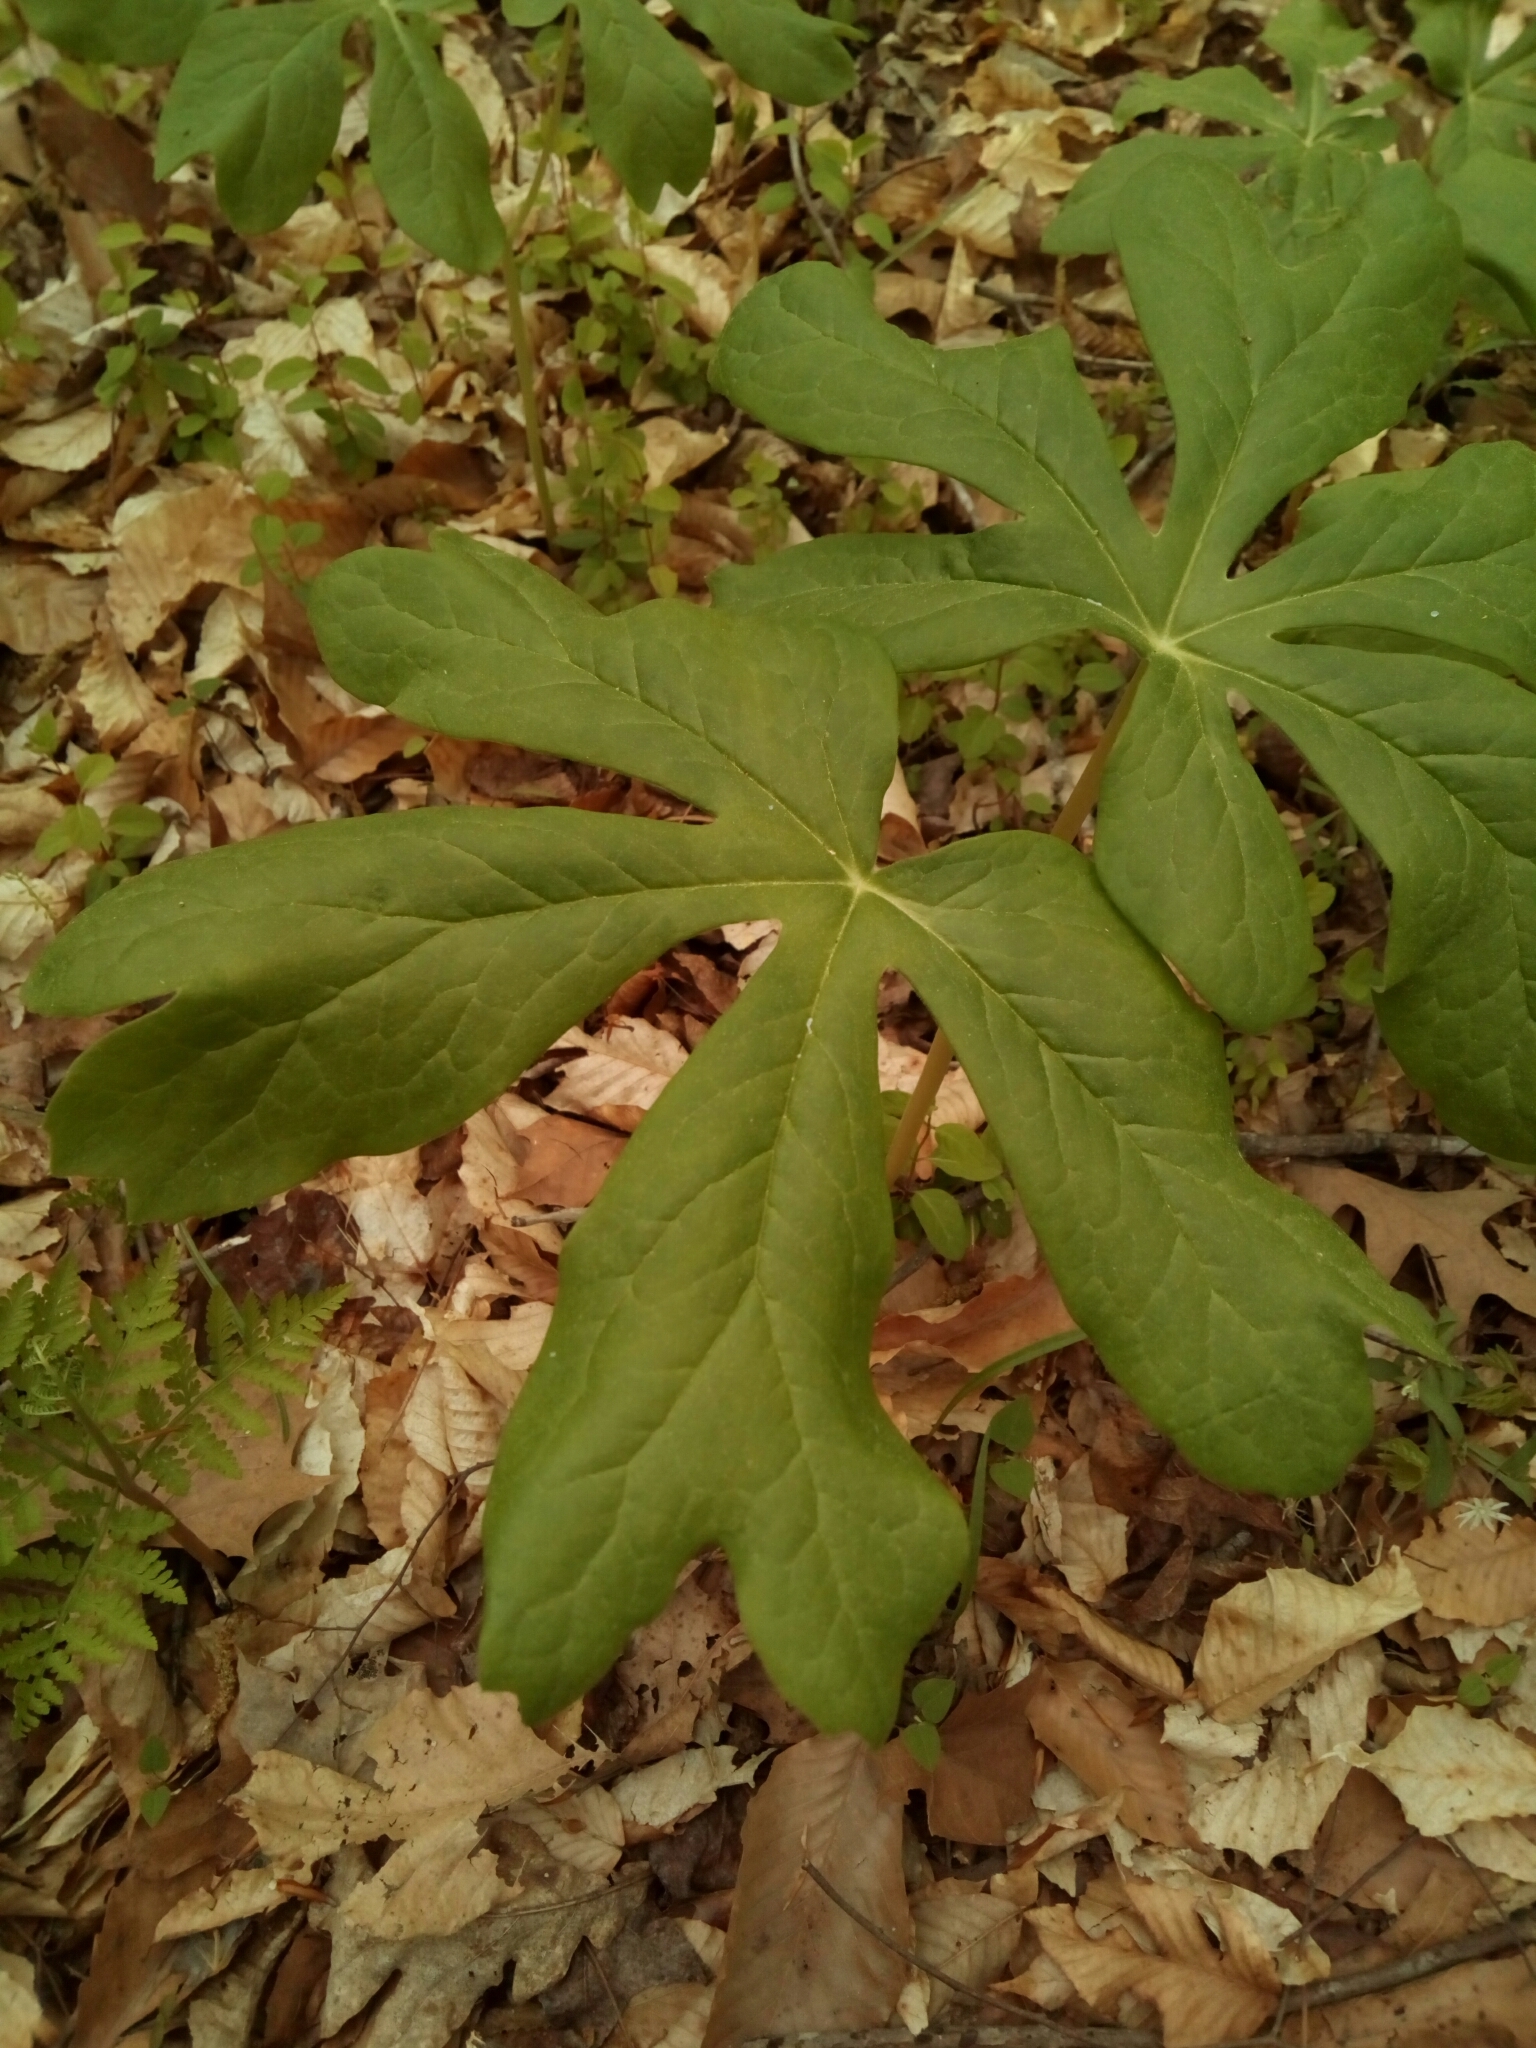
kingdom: Plantae
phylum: Tracheophyta
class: Magnoliopsida
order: Ranunculales
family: Berberidaceae
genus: Podophyllum
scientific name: Podophyllum peltatum
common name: Wild mandrake
